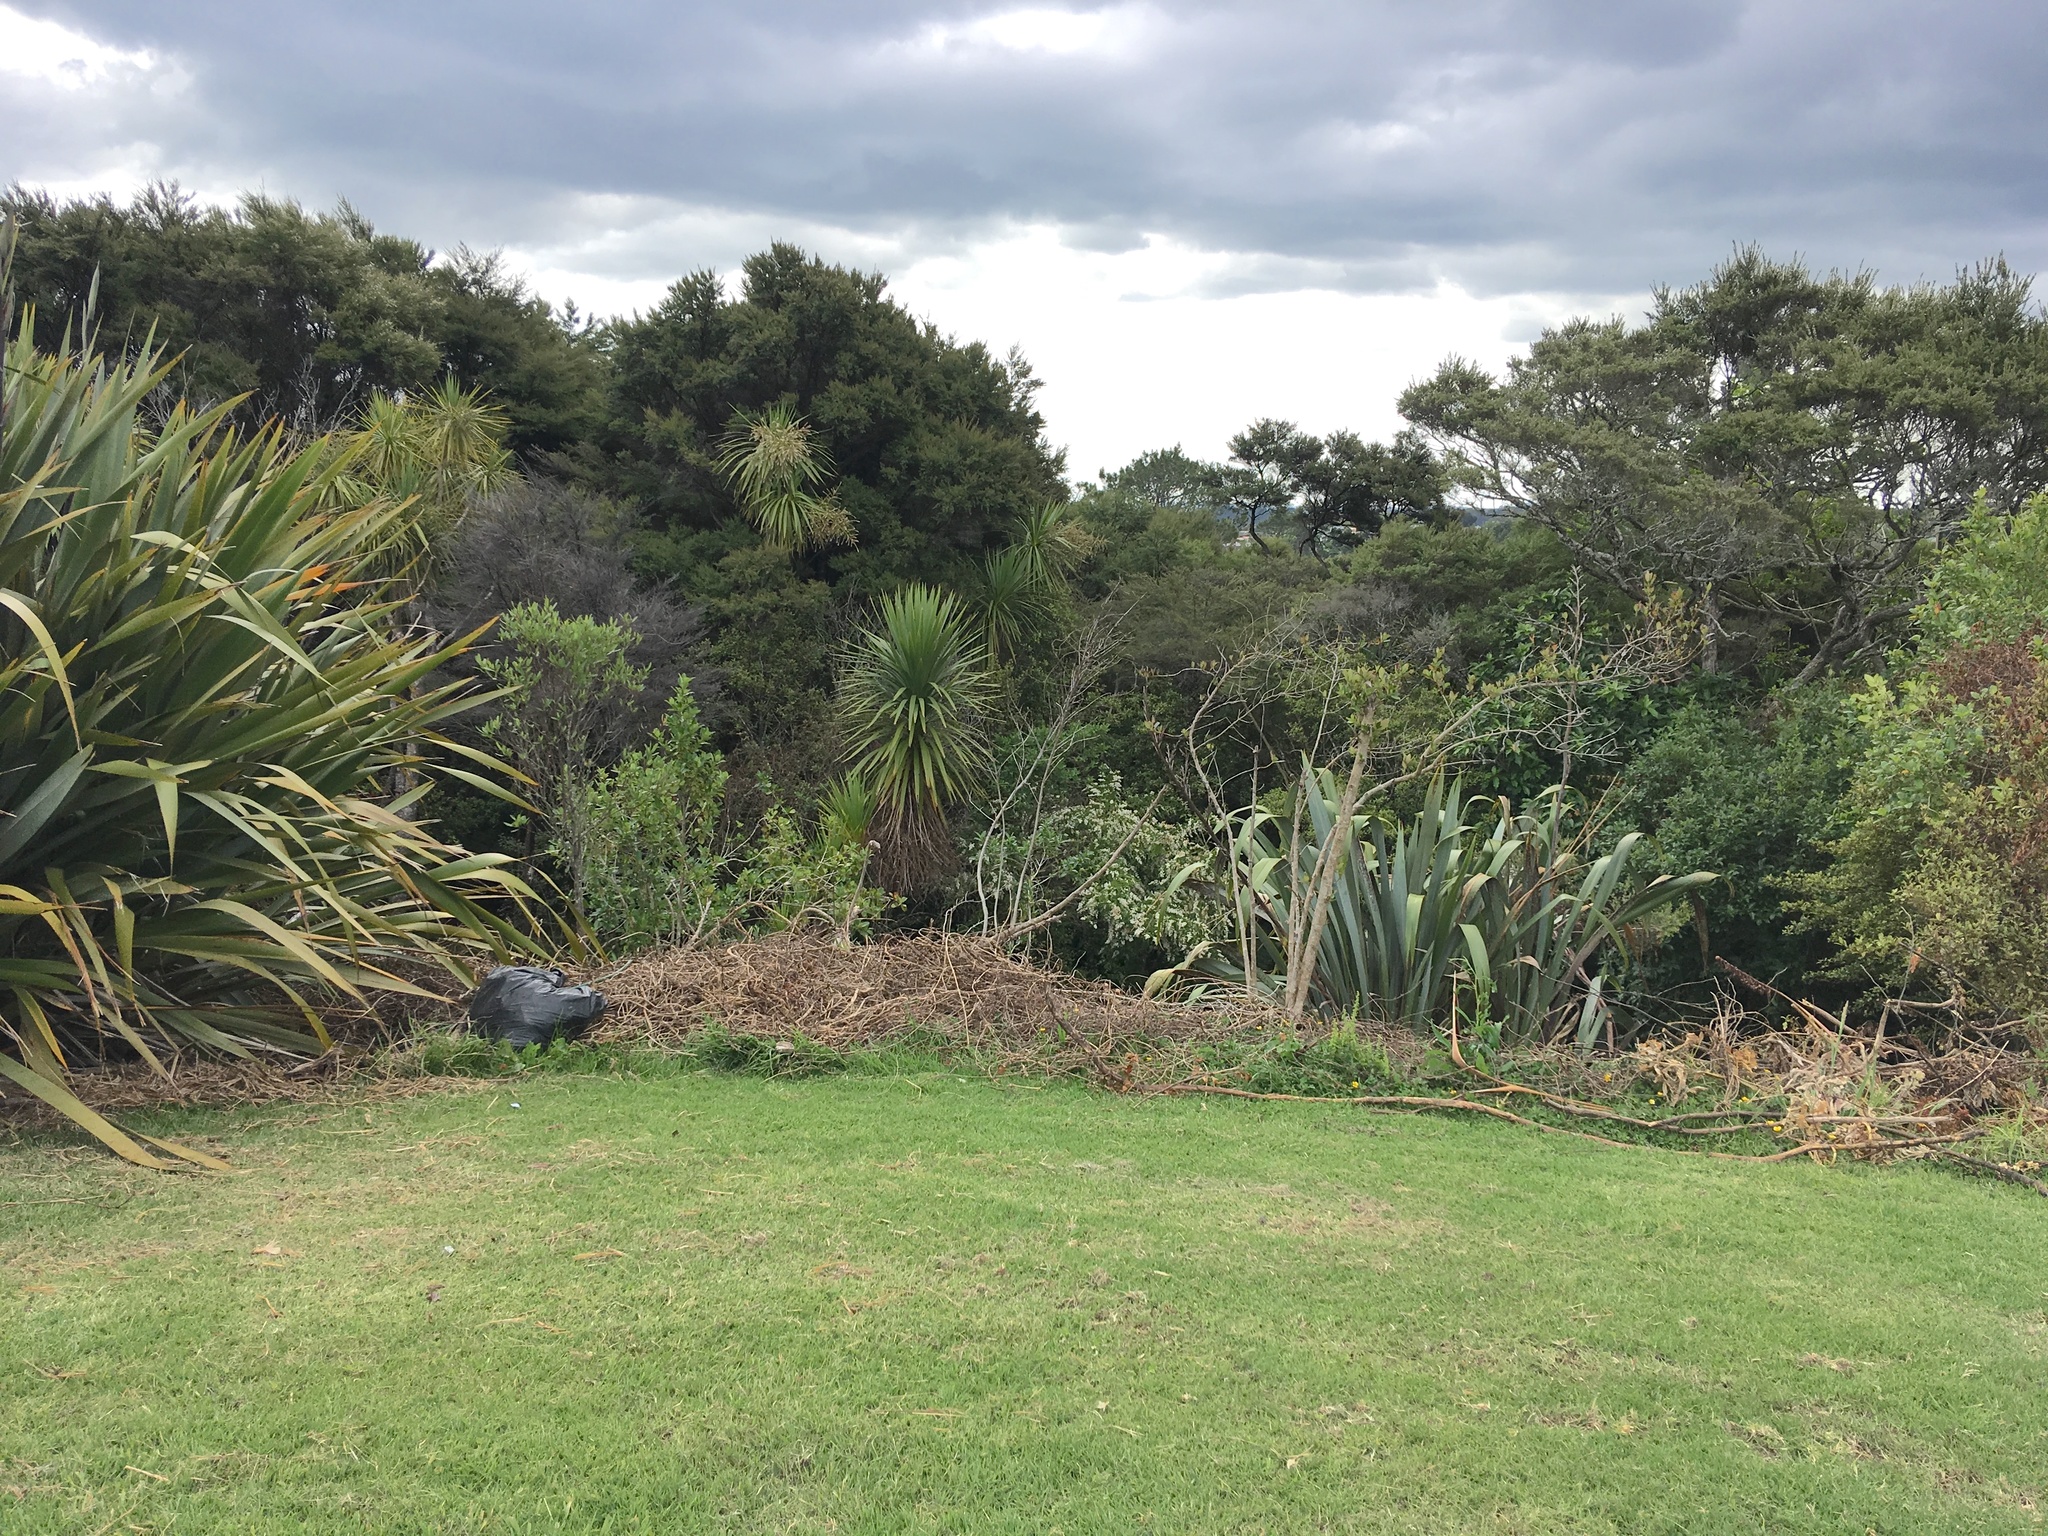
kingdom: Plantae
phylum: Tracheophyta
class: Liliopsida
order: Asparagales
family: Asparagaceae
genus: Cordyline
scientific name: Cordyline australis
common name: Cabbage-palm
